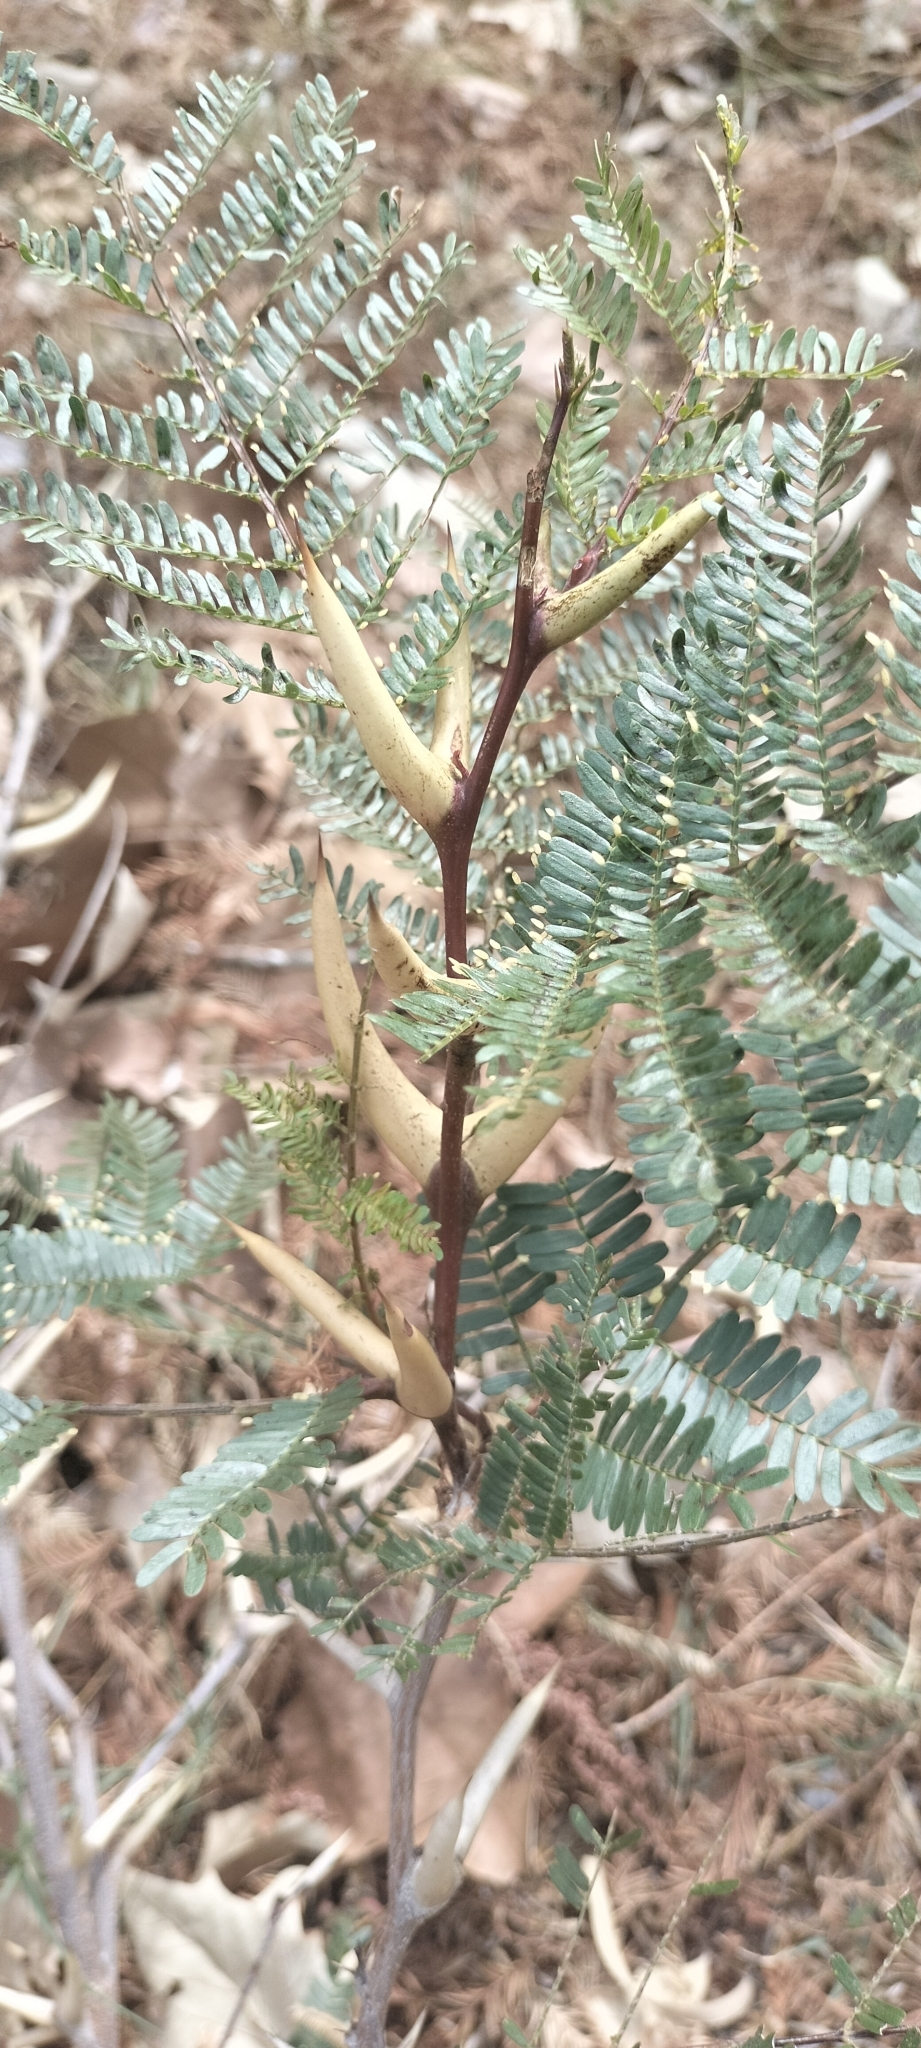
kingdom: Plantae
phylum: Tracheophyta
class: Magnoliopsida
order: Fabales
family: Fabaceae
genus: Vachellia
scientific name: Vachellia cornigera
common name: Bullhorn wattle
